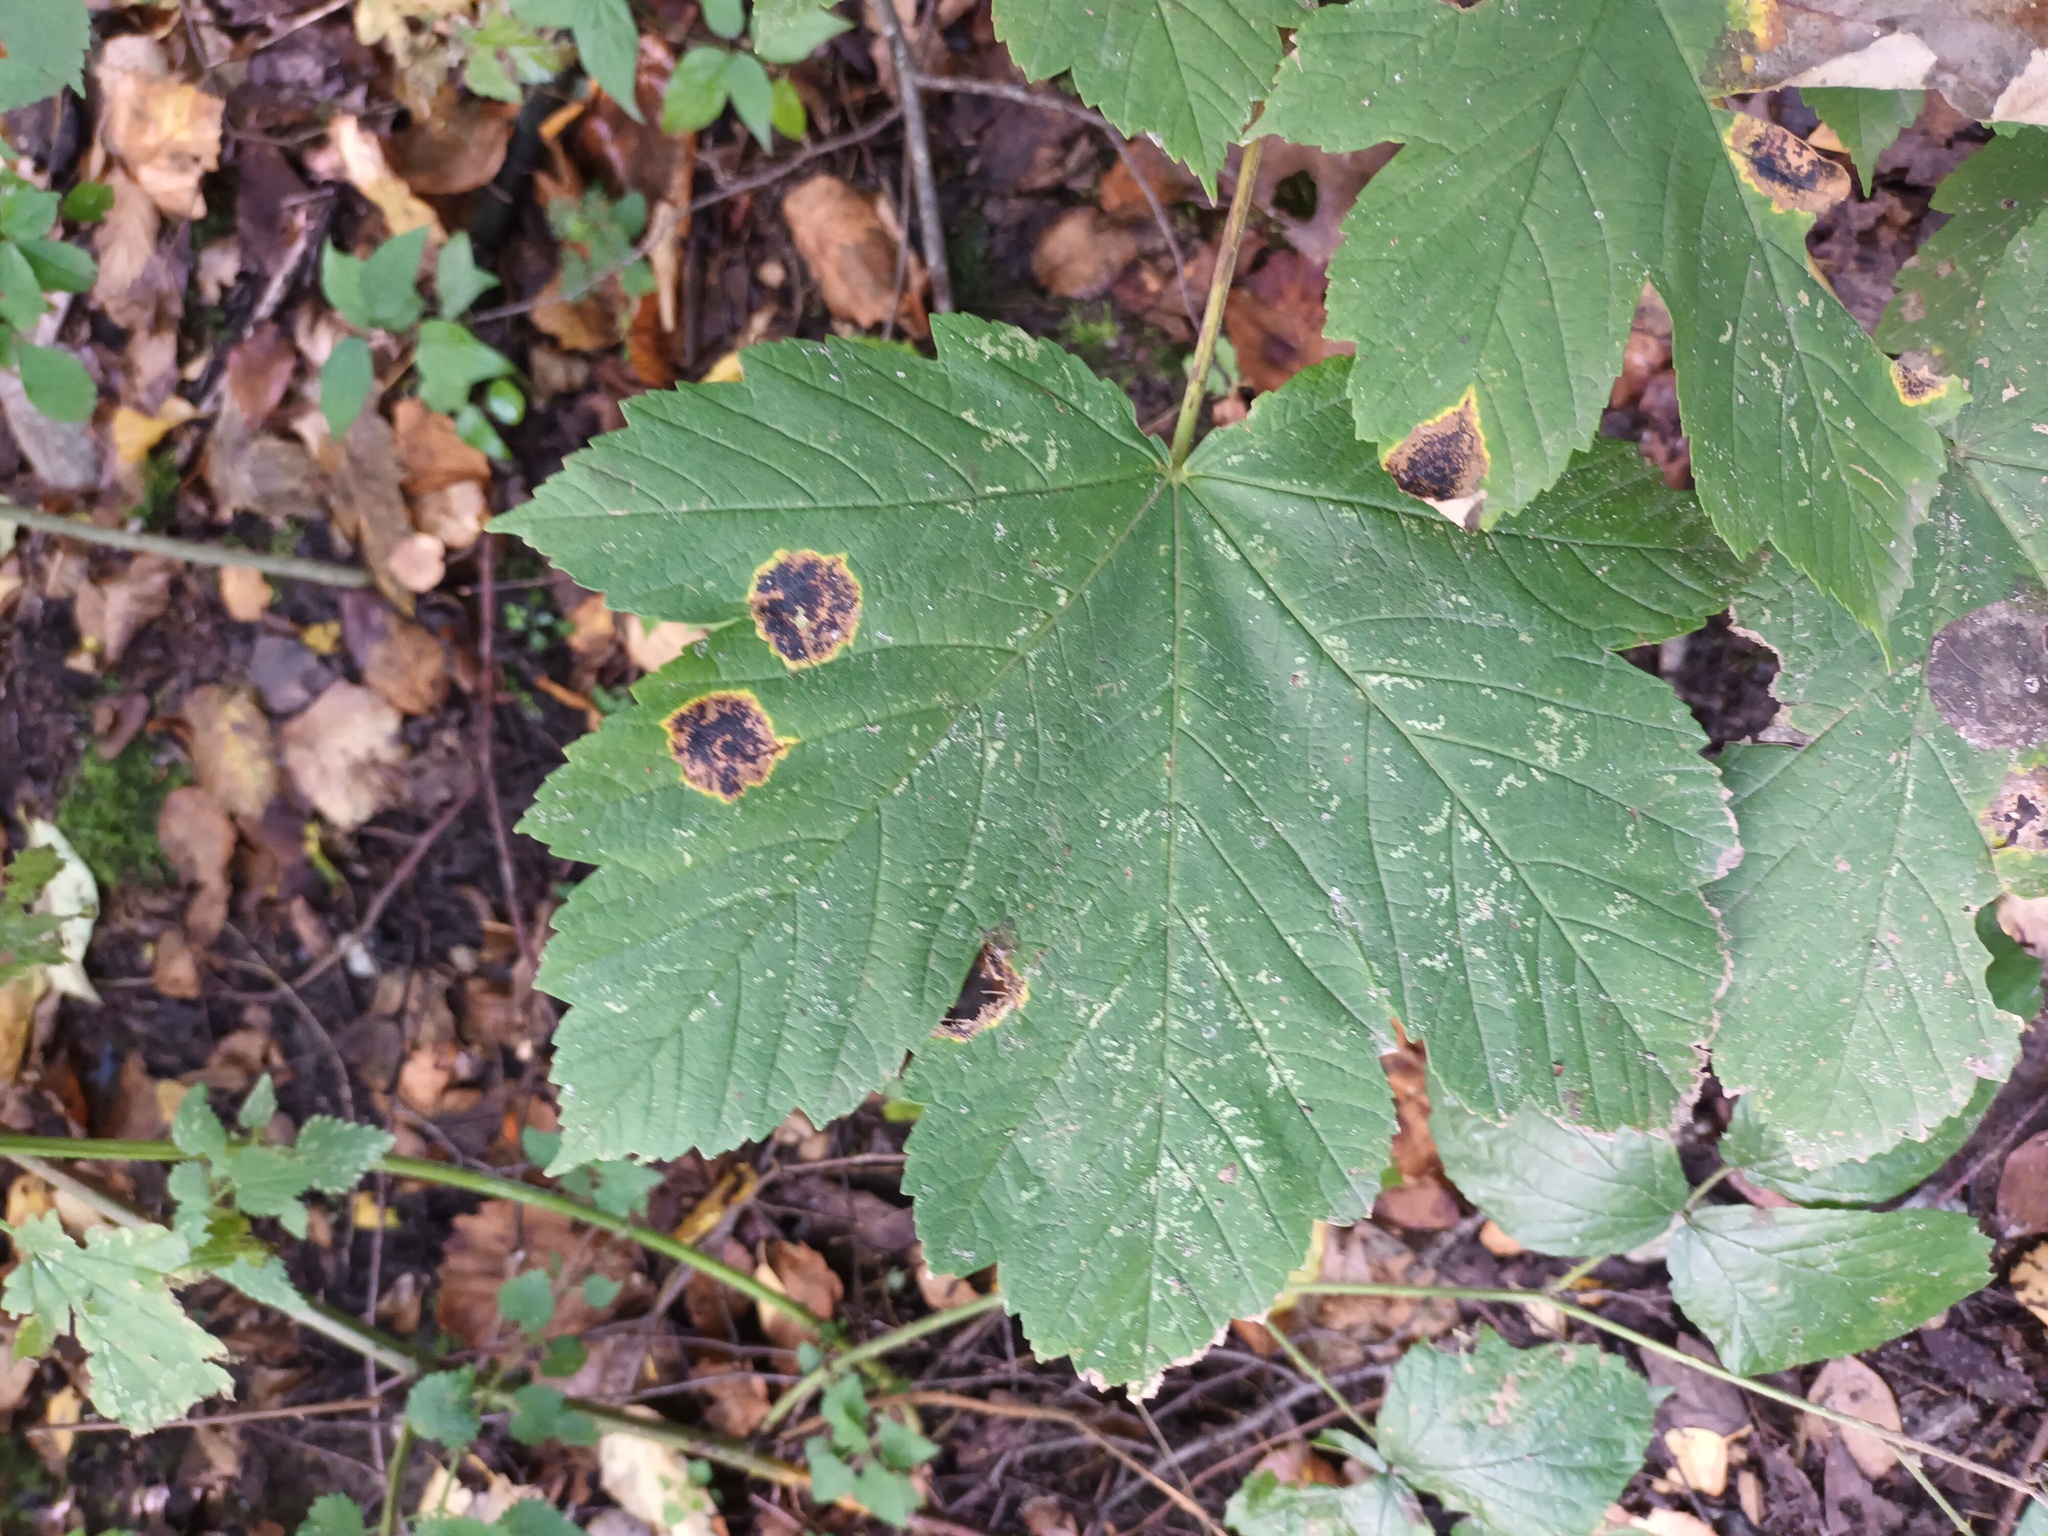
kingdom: Fungi
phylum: Ascomycota
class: Leotiomycetes
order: Rhytismatales
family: Rhytismataceae
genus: Rhytisma
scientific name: Rhytisma acerinum
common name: European tar spot
